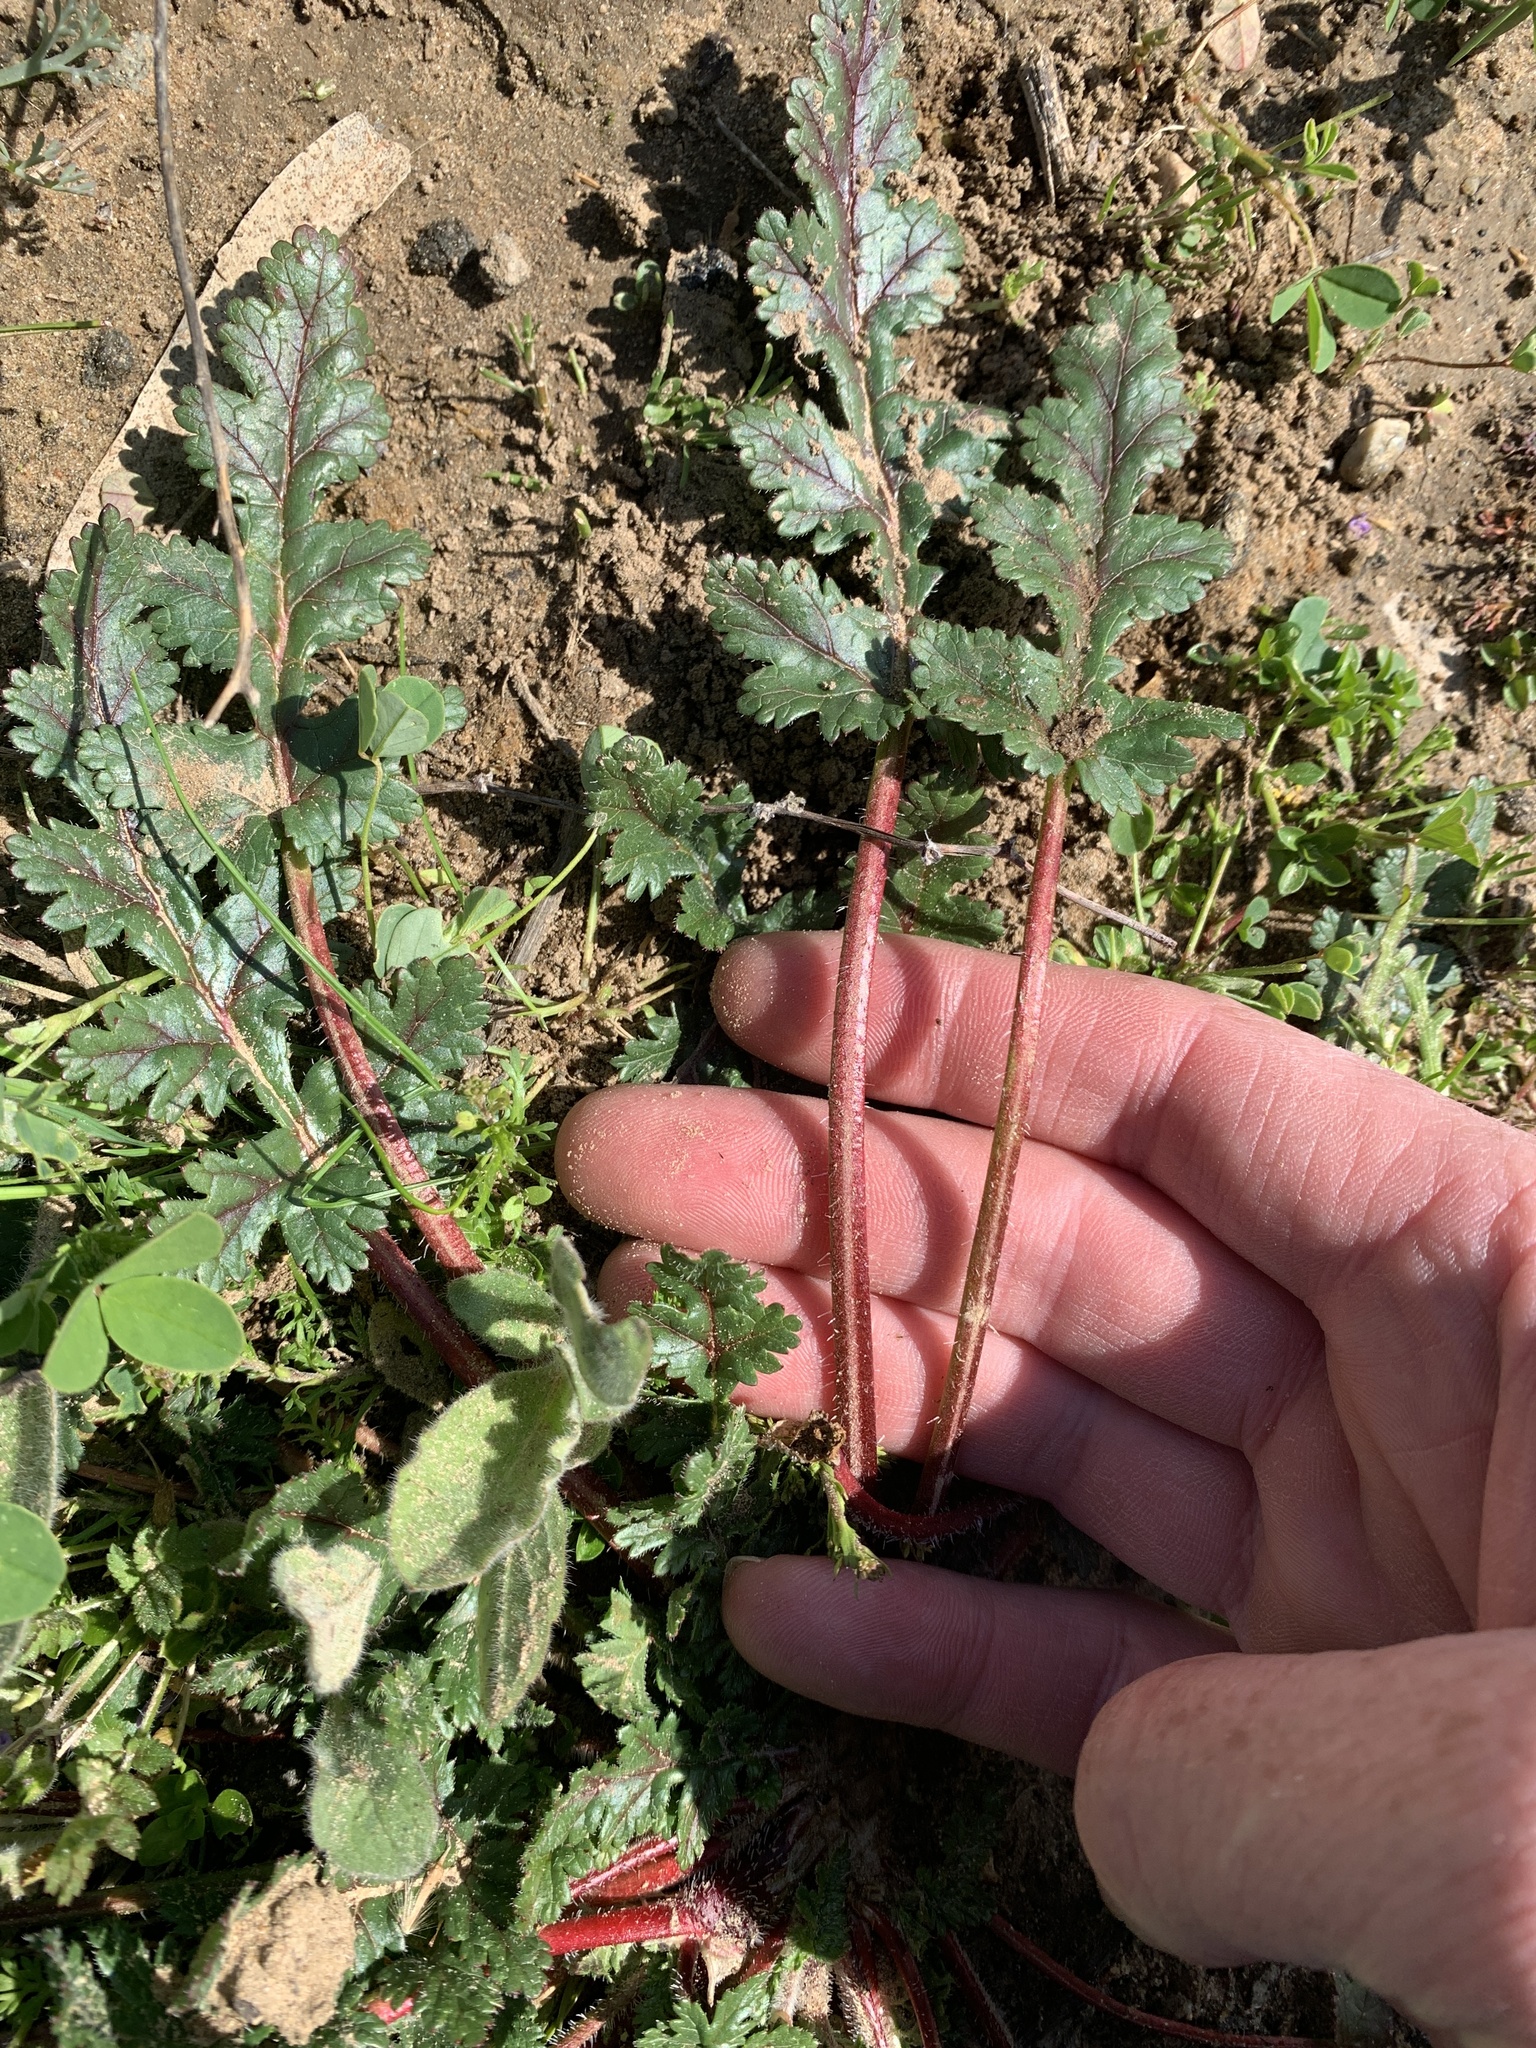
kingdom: Plantae
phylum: Tracheophyta
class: Magnoliopsida
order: Geraniales
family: Geraniaceae
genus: Erodium
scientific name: Erodium
